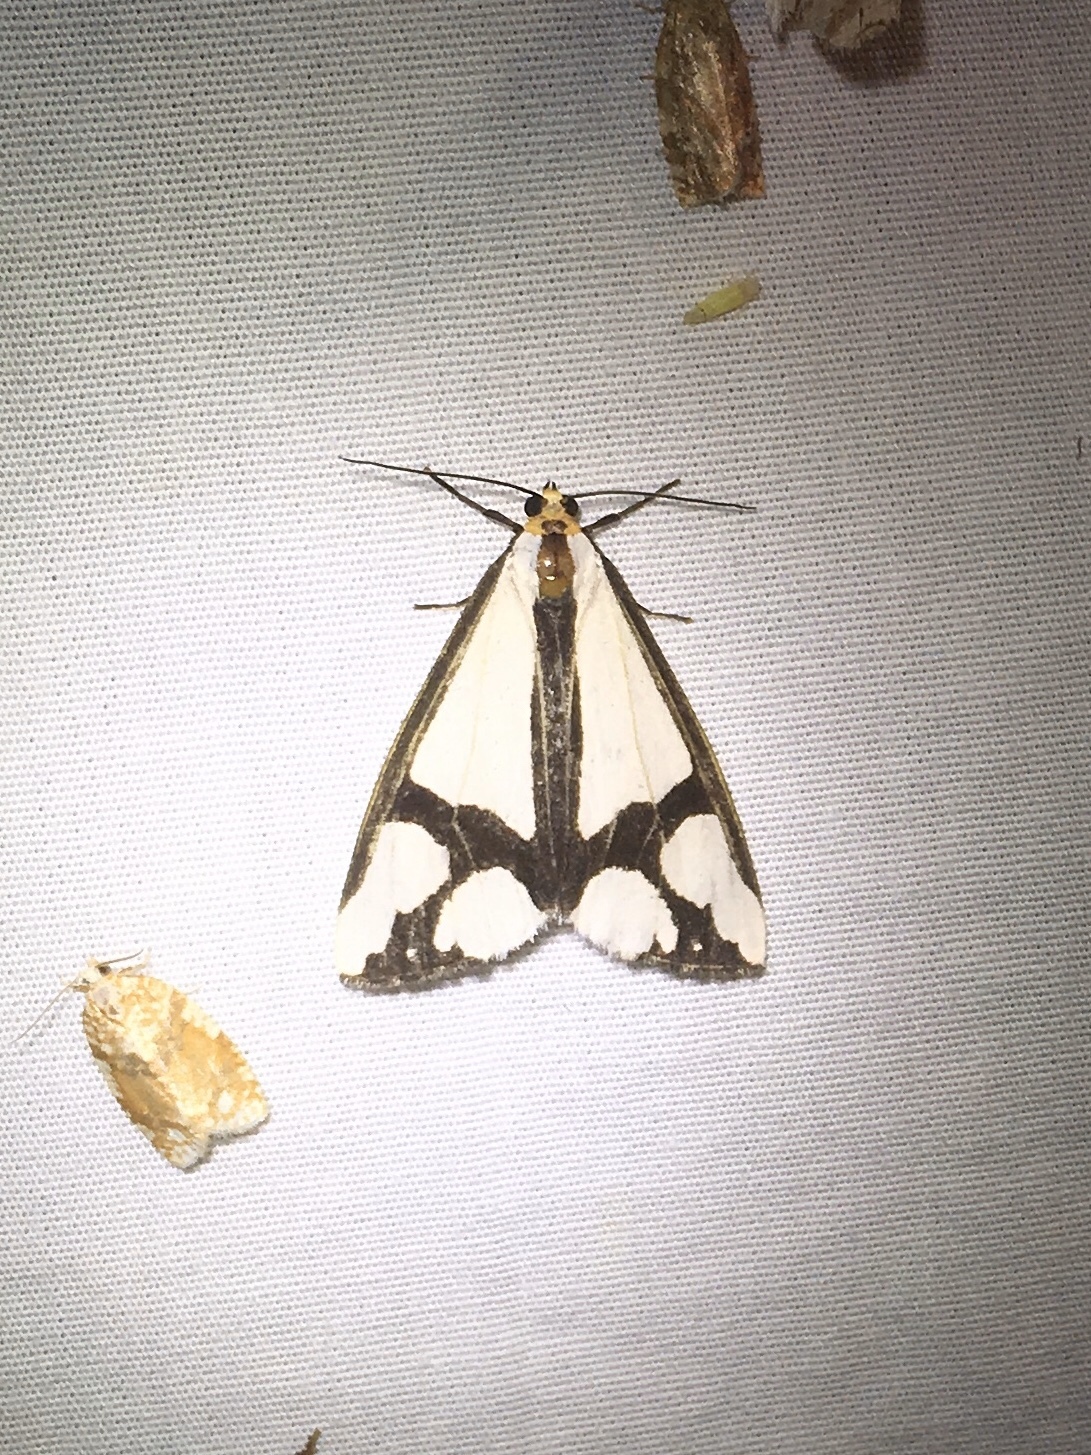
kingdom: Animalia
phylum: Arthropoda
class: Insecta
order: Lepidoptera
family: Erebidae
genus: Haploa
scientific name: Haploa contigua
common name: Neighbor moth
